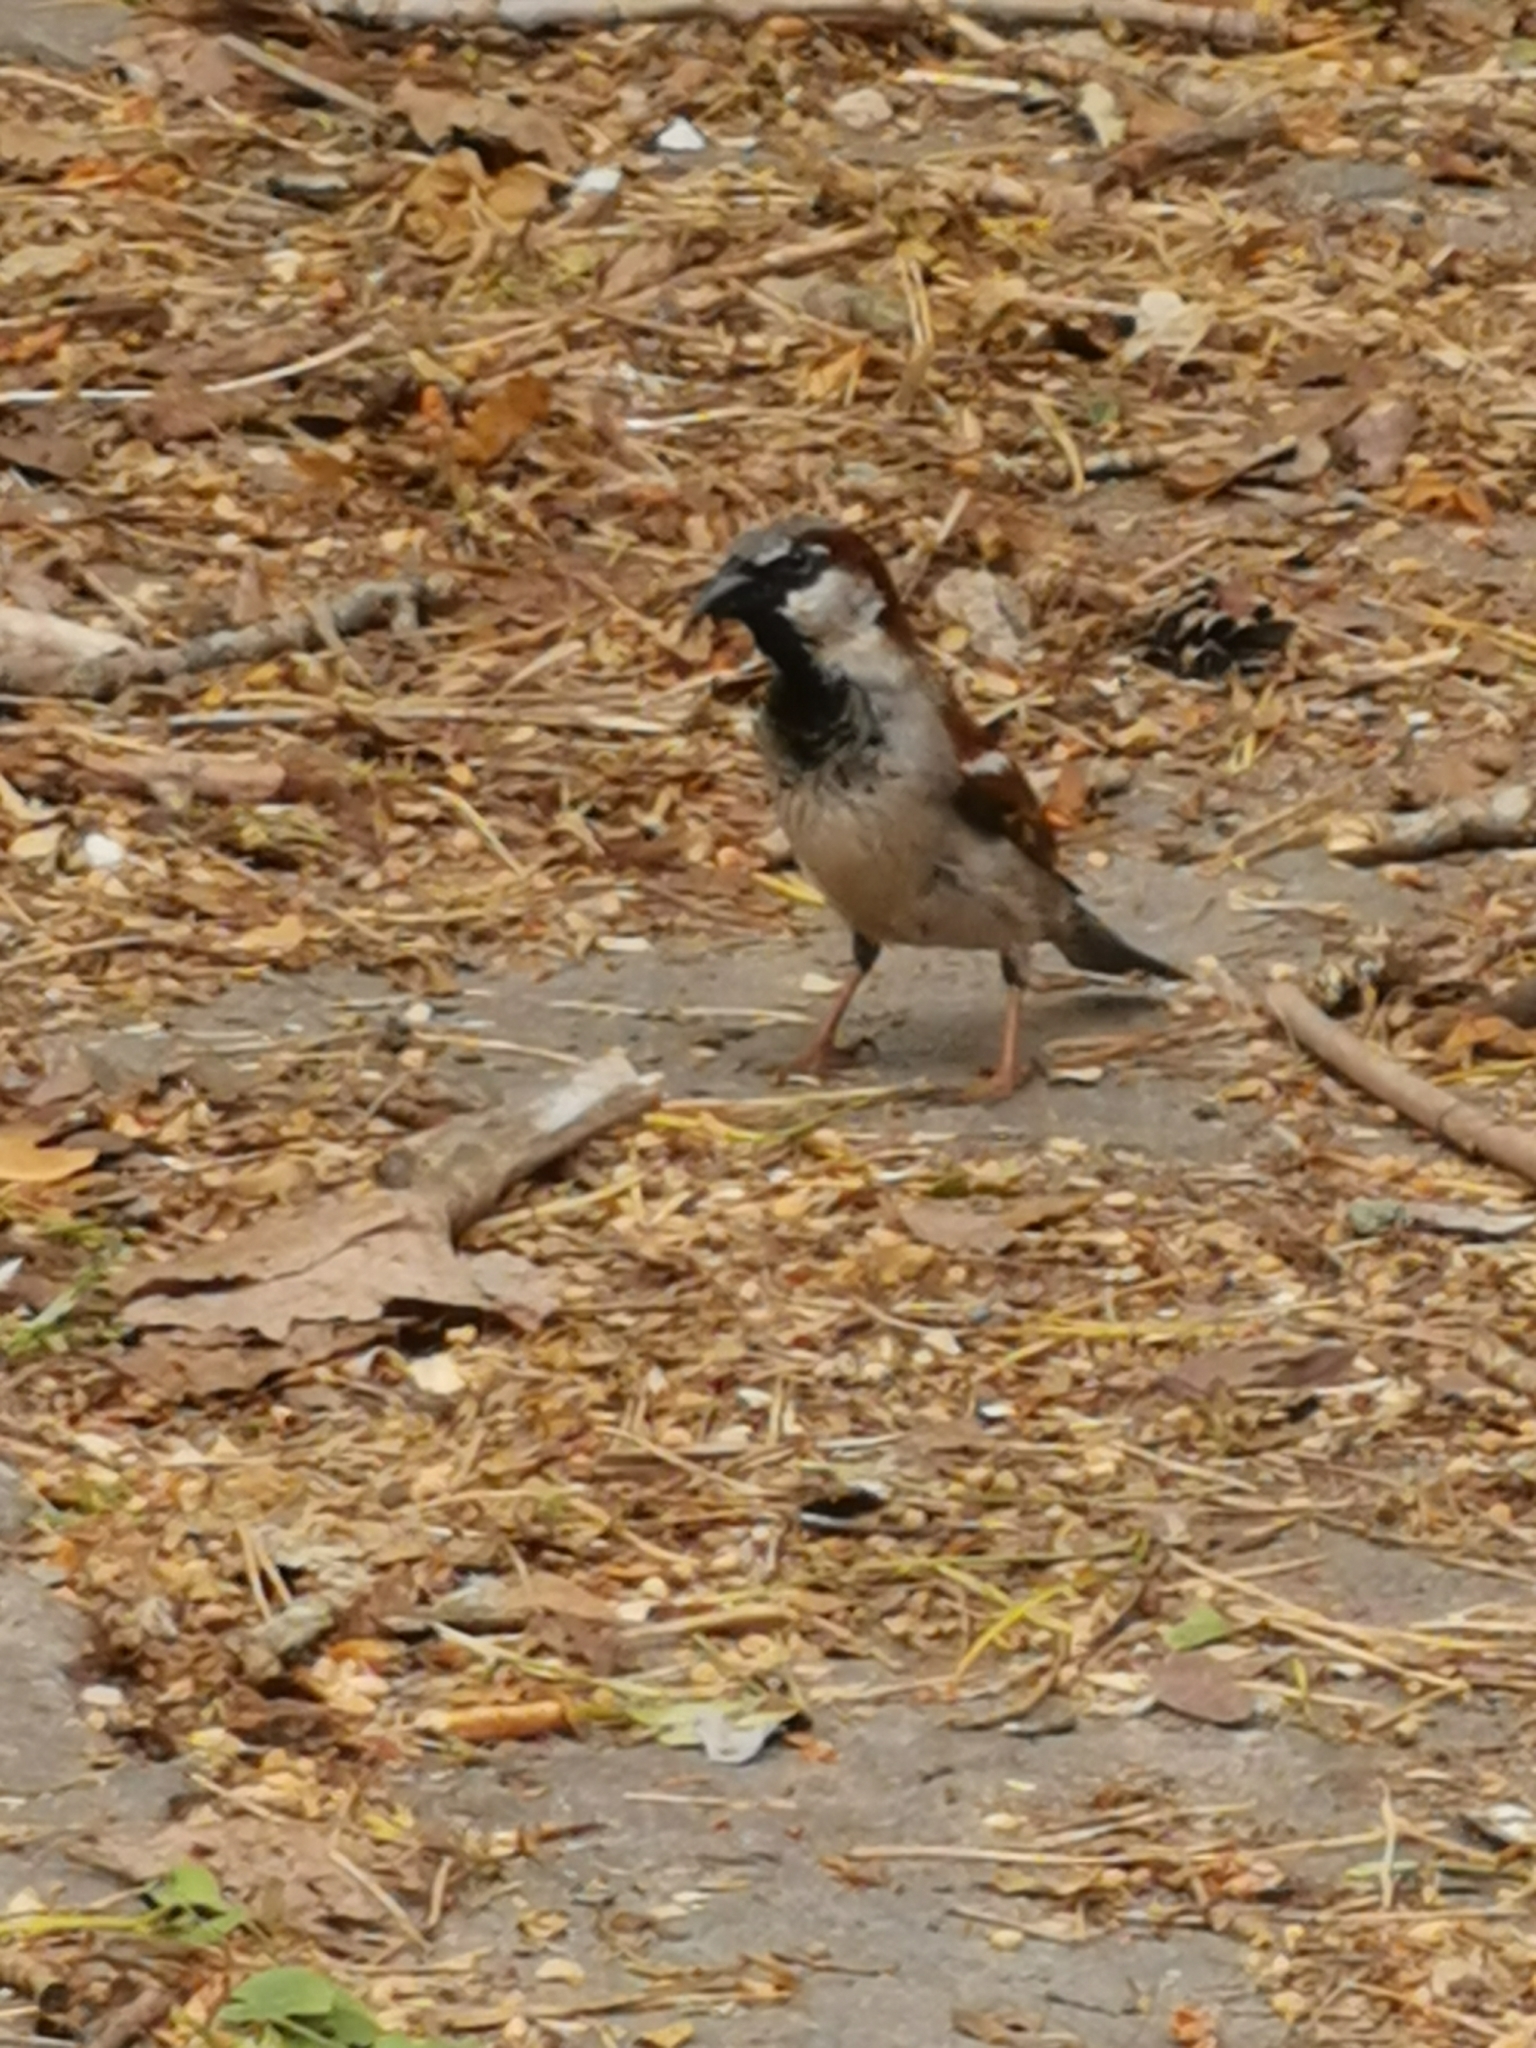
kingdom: Animalia
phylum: Chordata
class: Aves
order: Passeriformes
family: Passeridae
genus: Passer
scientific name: Passer domesticus
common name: House sparrow
